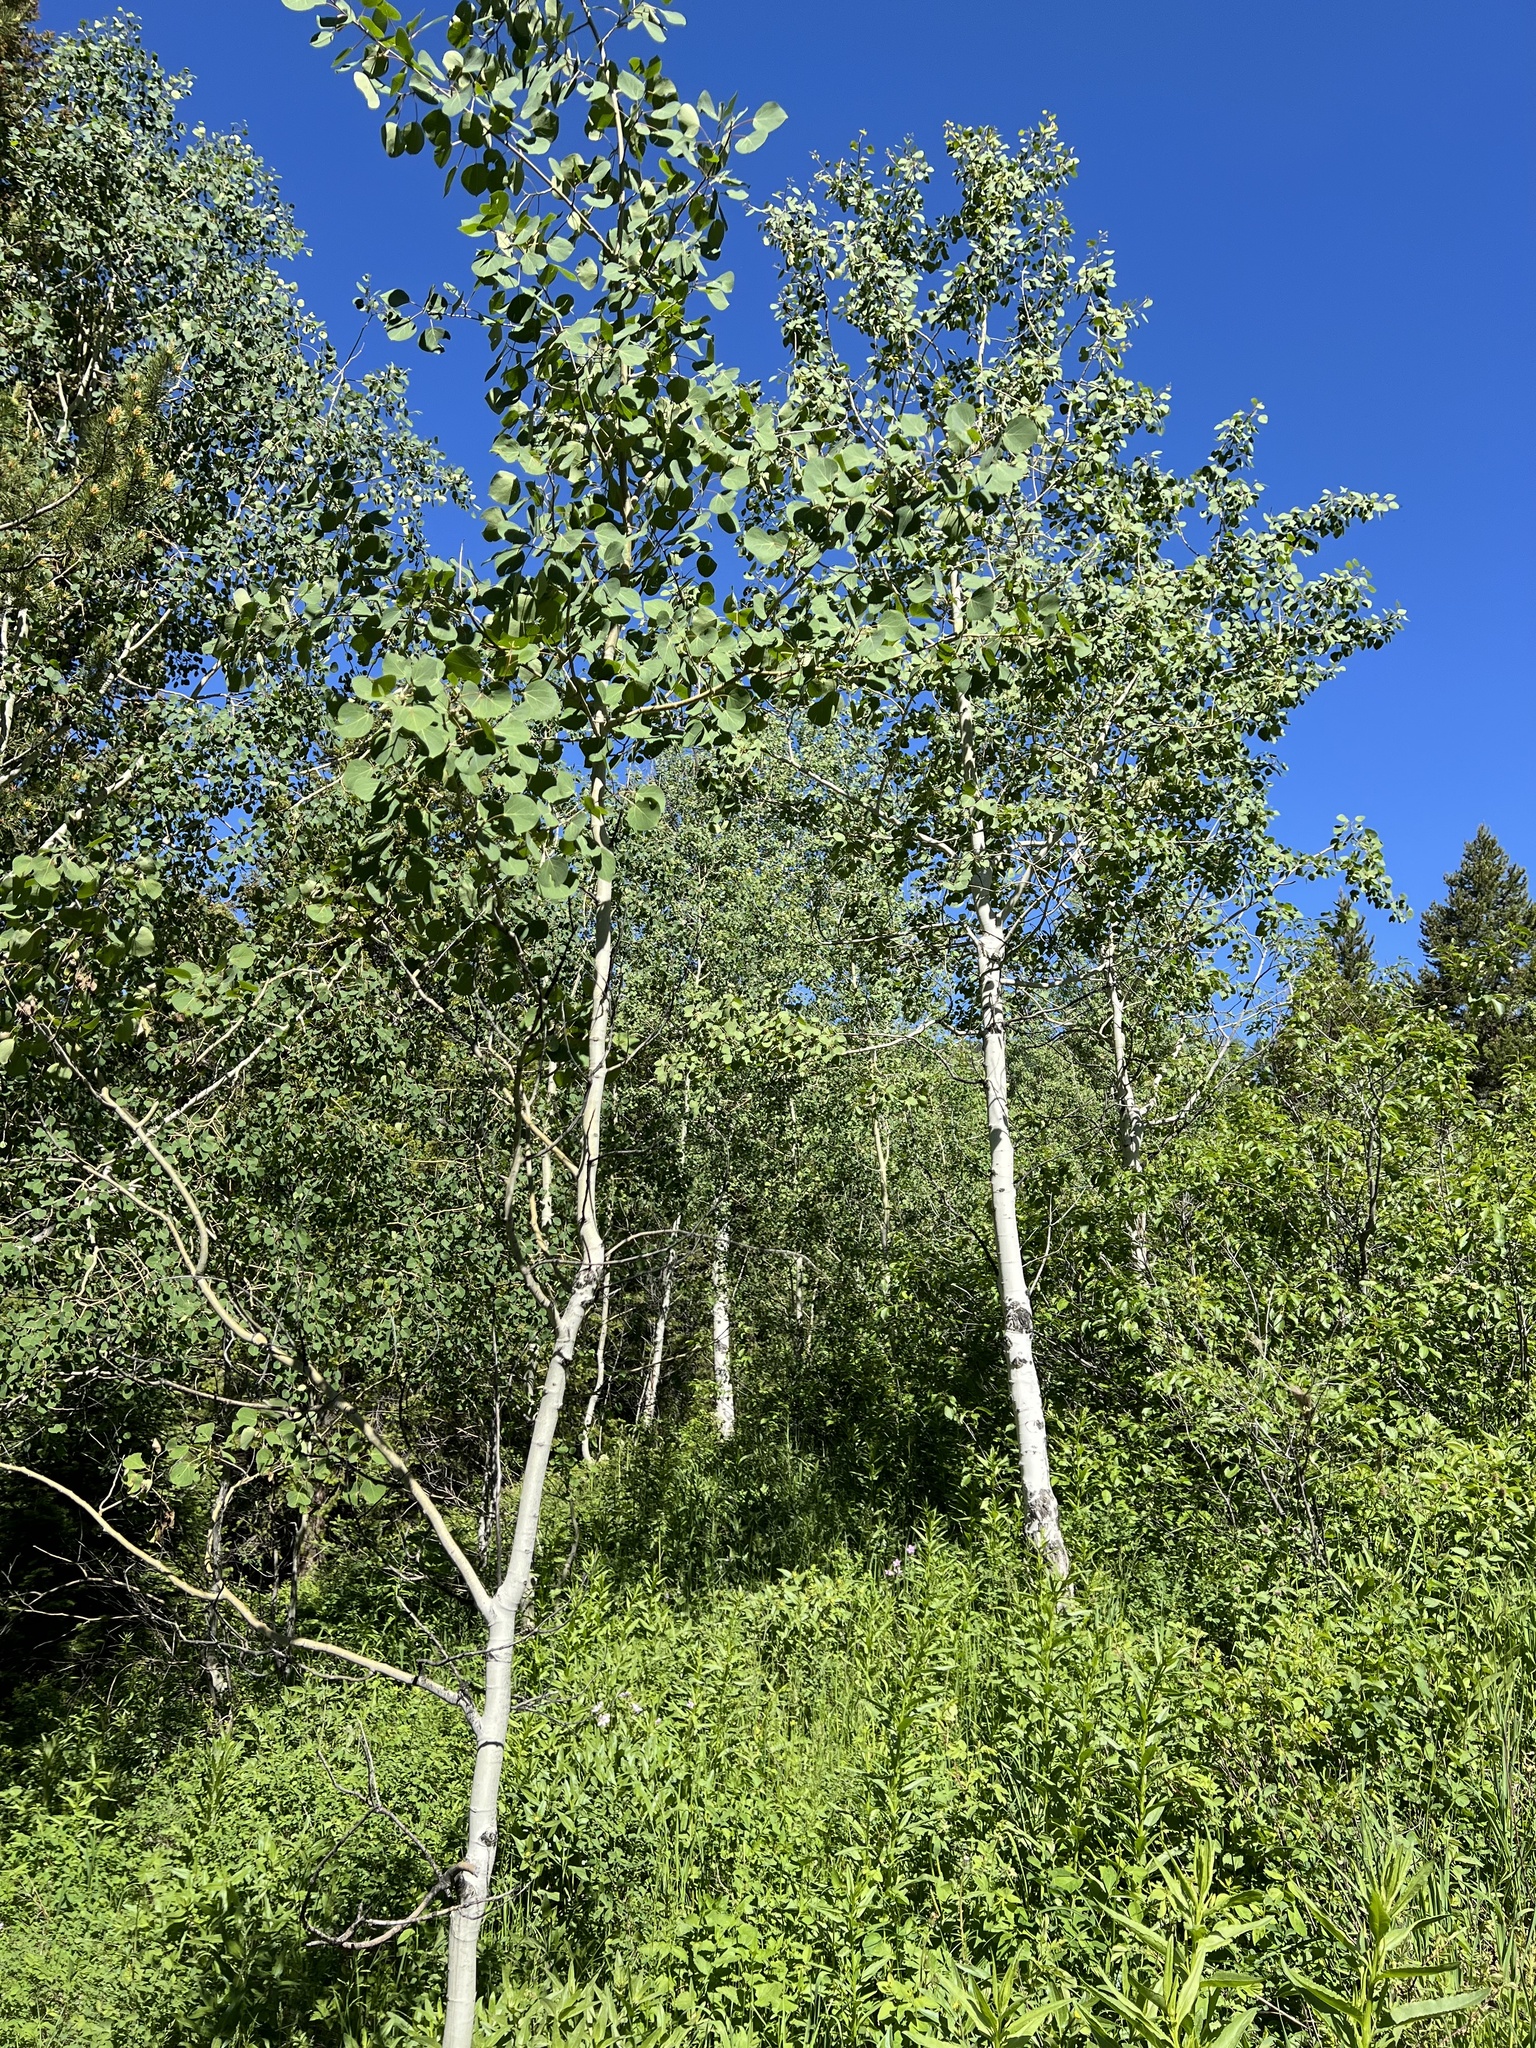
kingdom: Plantae
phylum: Tracheophyta
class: Magnoliopsida
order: Malpighiales
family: Salicaceae
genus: Populus
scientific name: Populus tremuloides
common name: Quaking aspen
